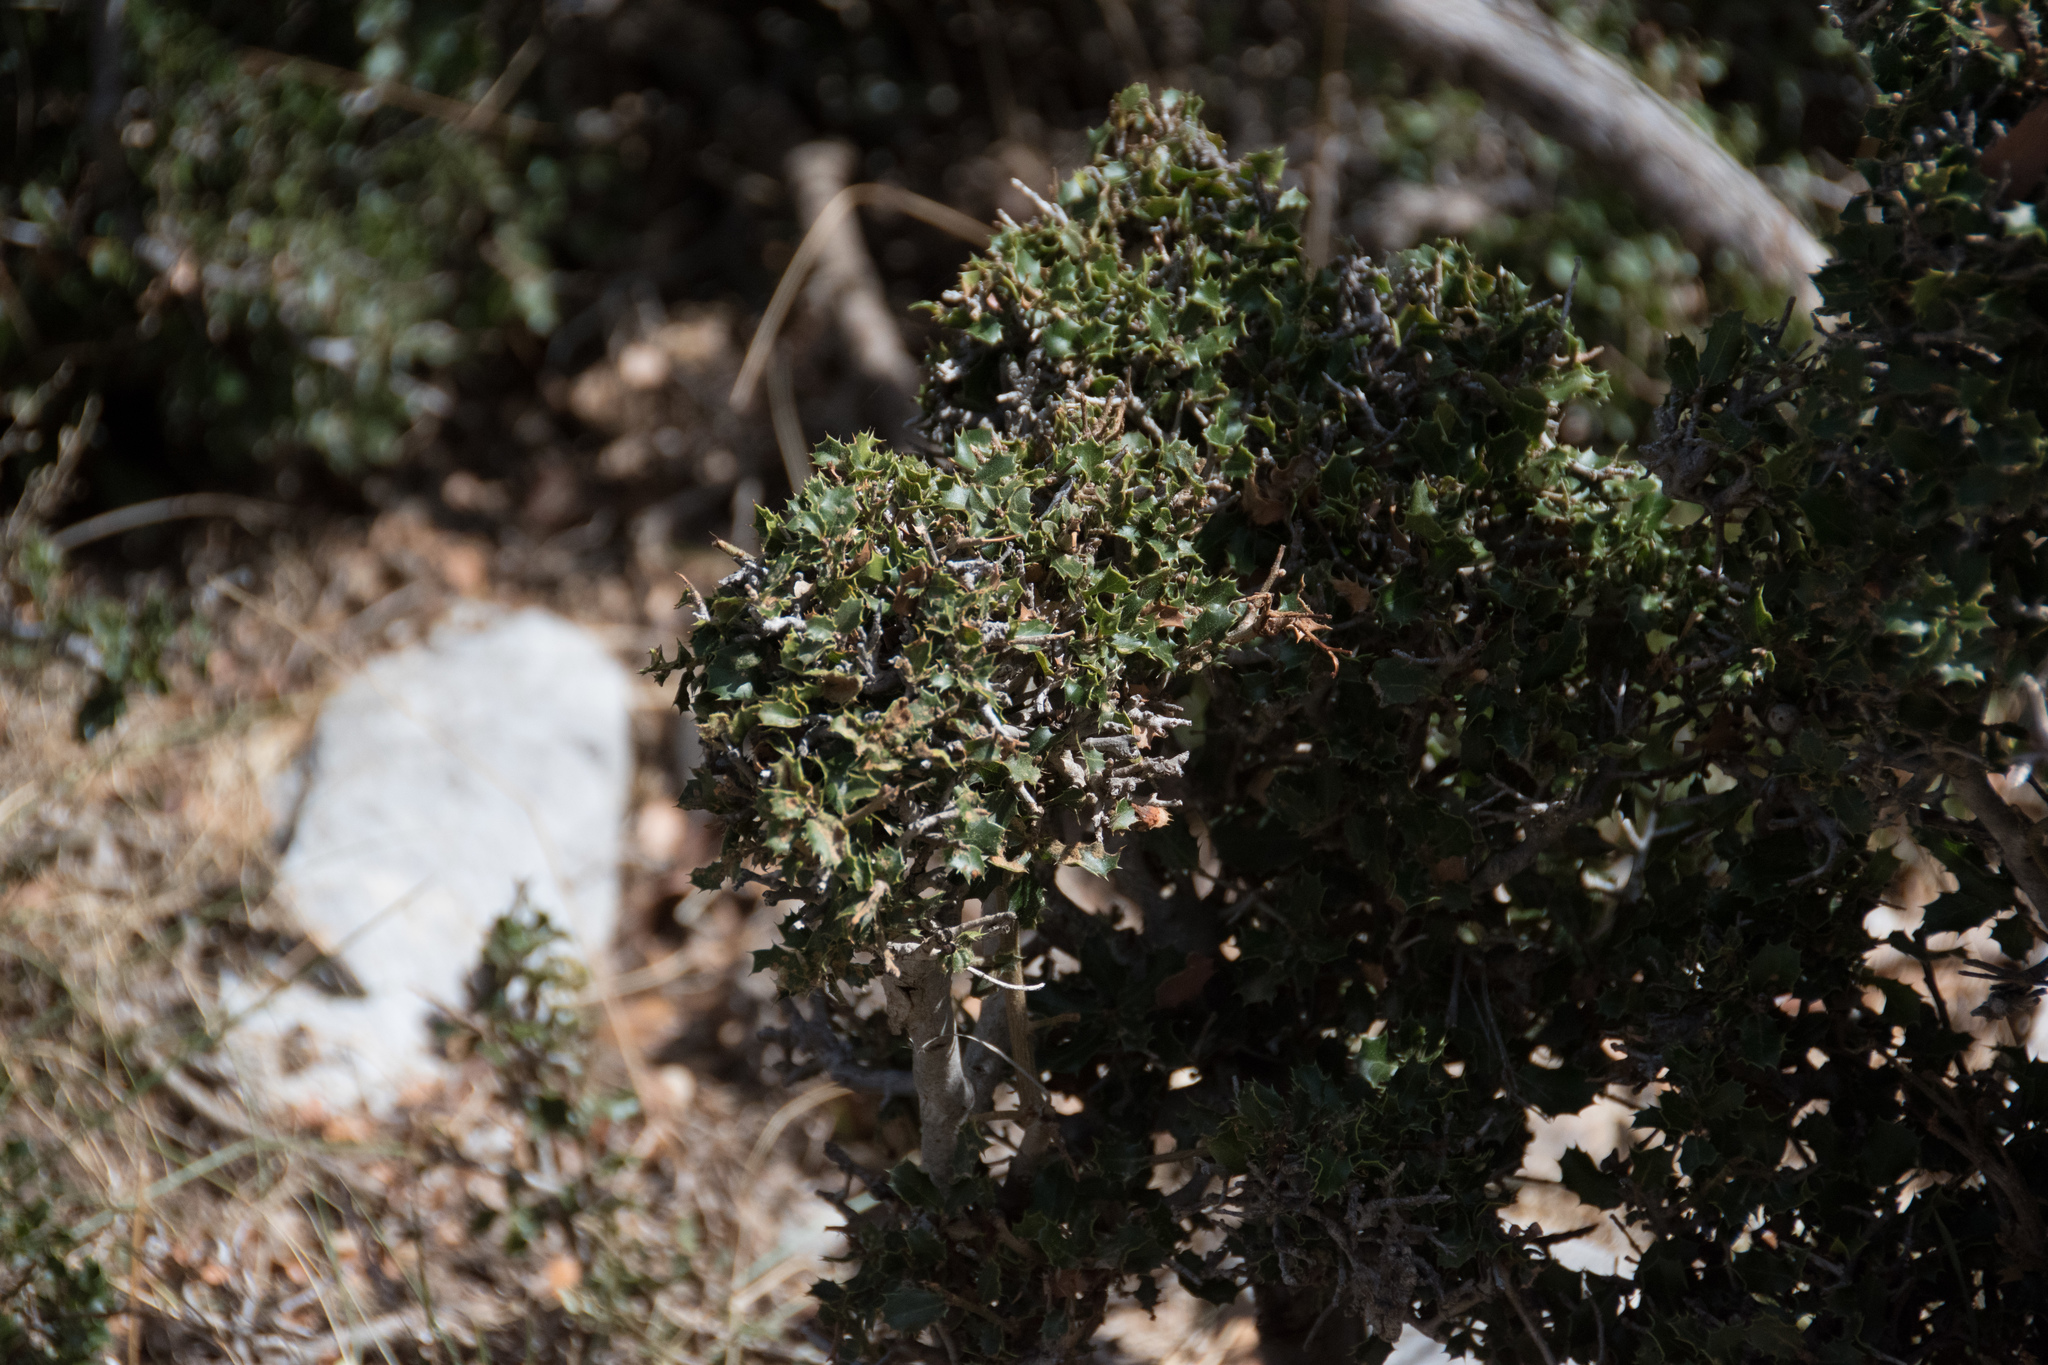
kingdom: Plantae
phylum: Tracheophyta
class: Magnoliopsida
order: Fagales
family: Fagaceae
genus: Quercus
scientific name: Quercus coccifera
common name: Kermes oak
